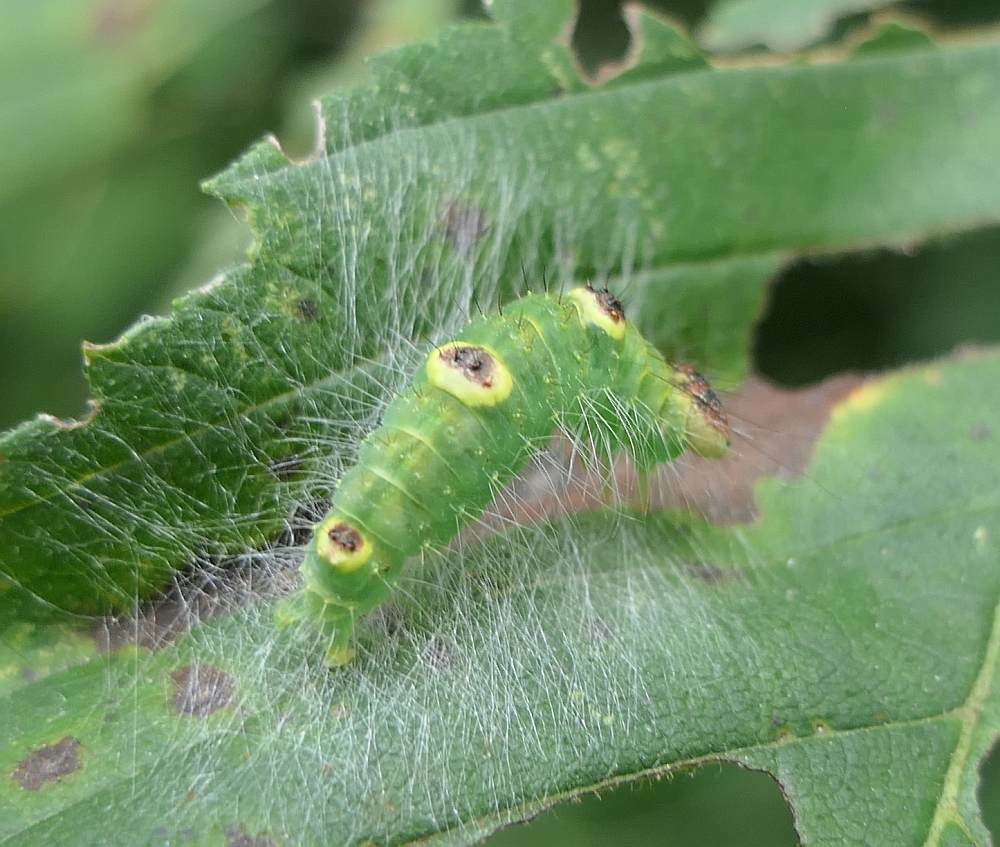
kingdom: Animalia
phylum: Arthropoda
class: Insecta
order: Lepidoptera
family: Noctuidae
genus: Acronicta
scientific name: Acronicta morula
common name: Ochre dagger
